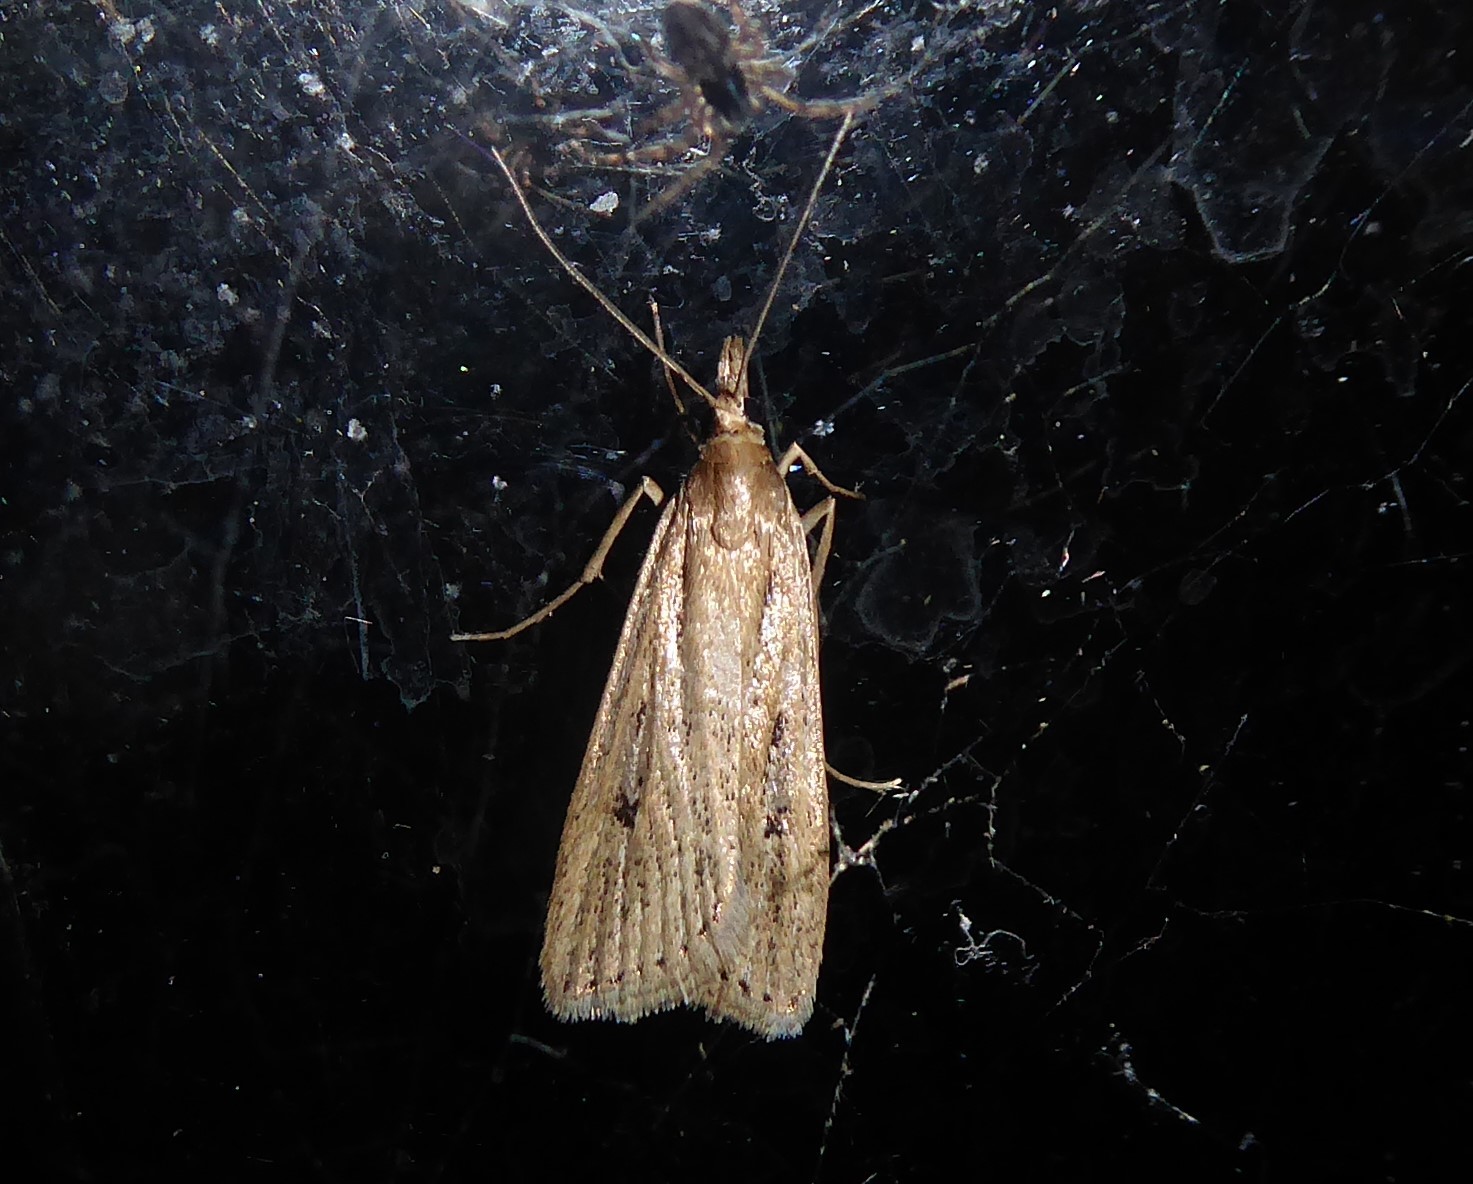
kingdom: Animalia
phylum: Arthropoda
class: Insecta
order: Lepidoptera
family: Crambidae
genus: Eudonia
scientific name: Eudonia octophora
